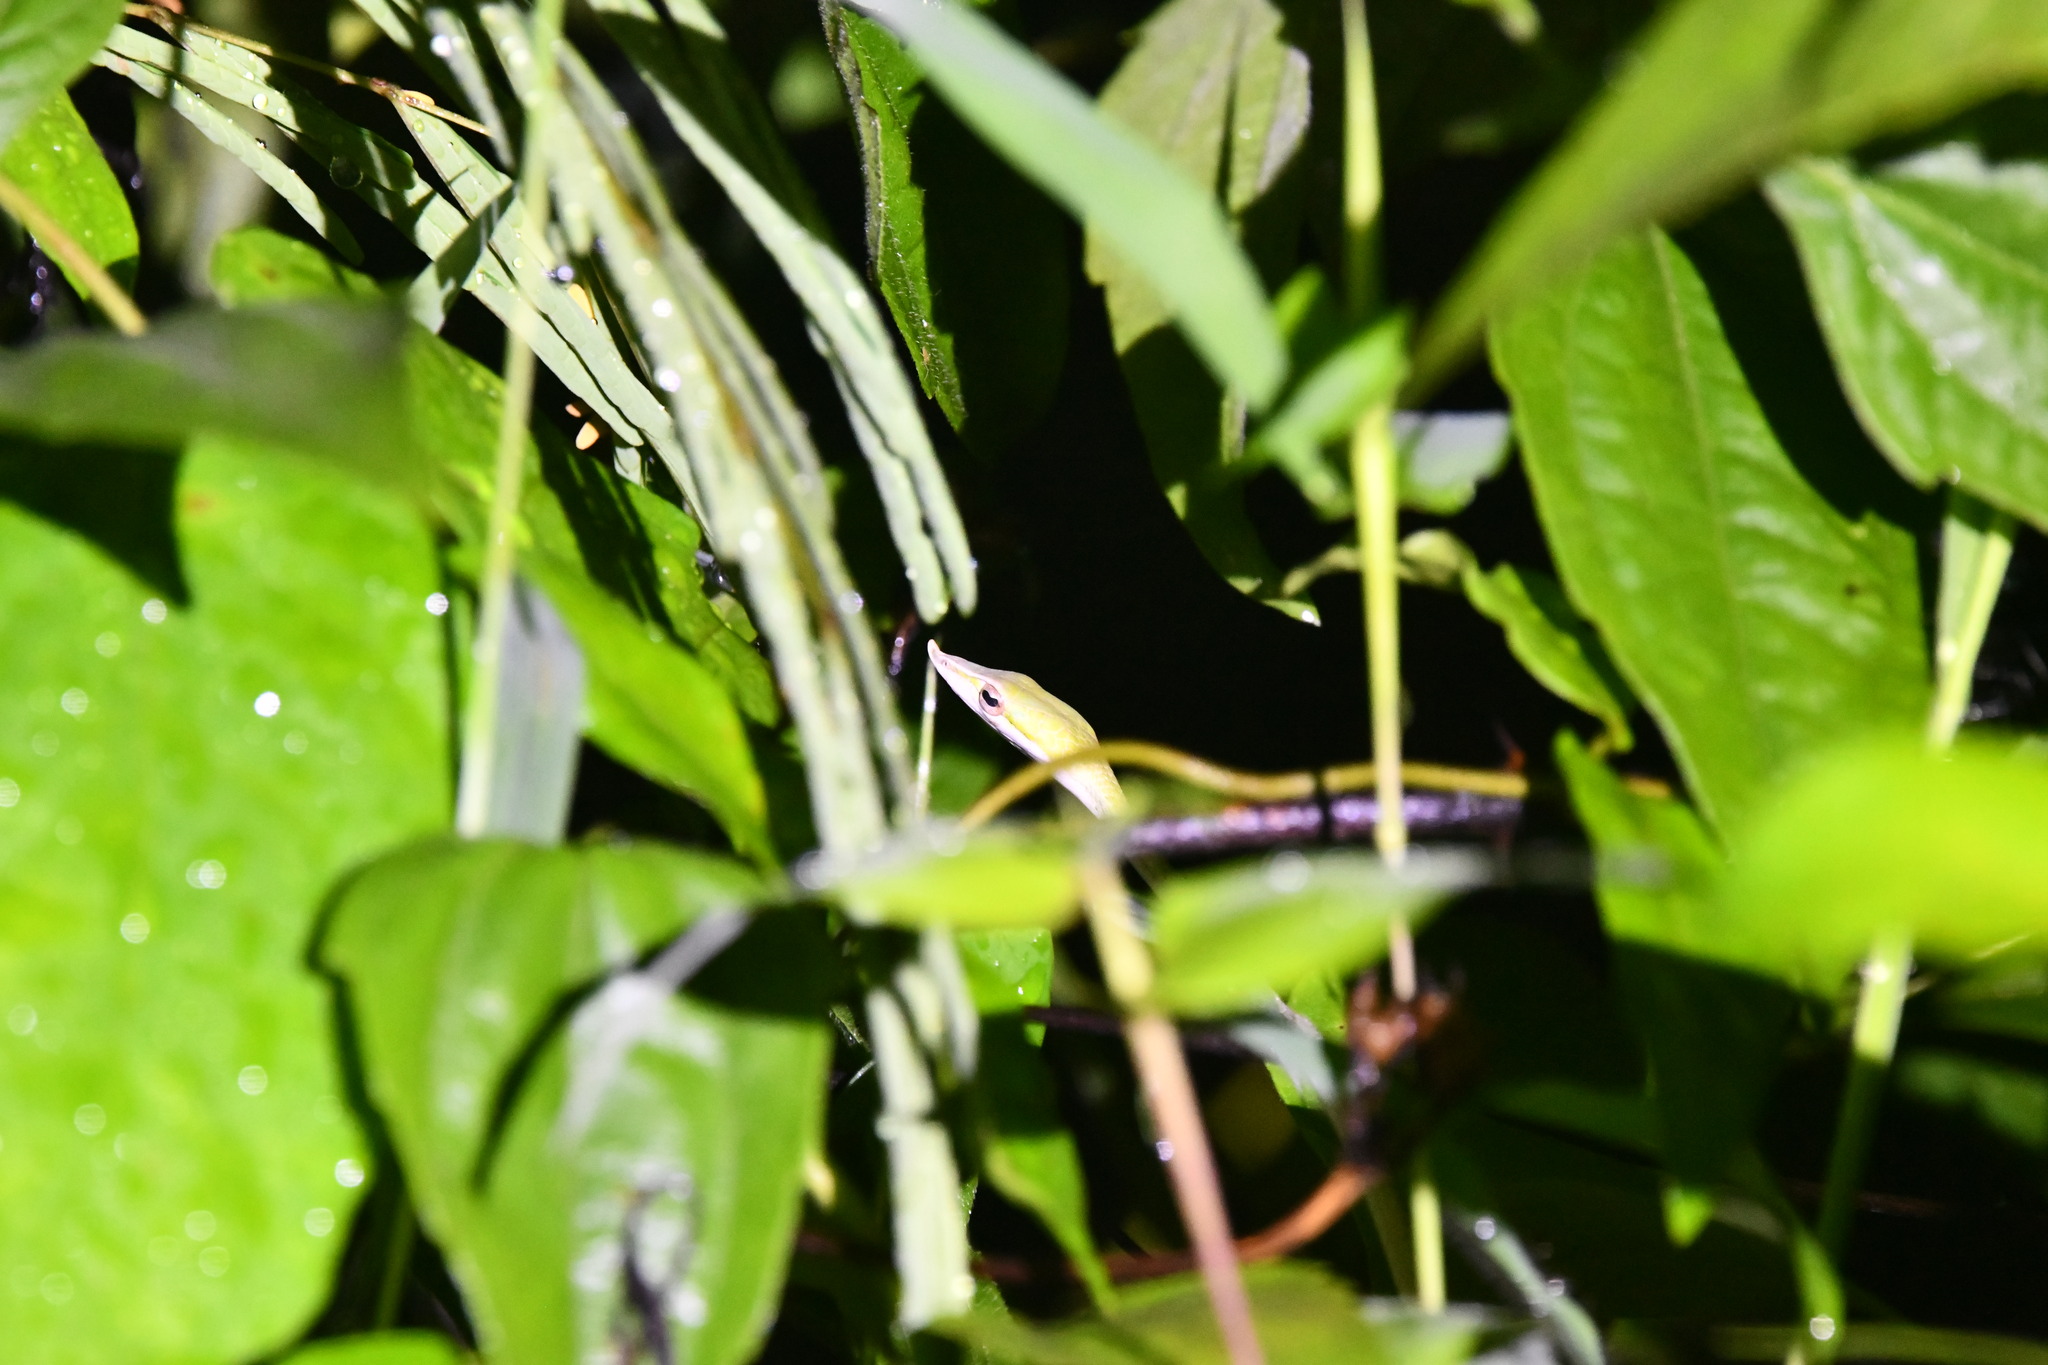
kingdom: Animalia
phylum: Chordata
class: Squamata
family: Colubridae
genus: Ahaetulla
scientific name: Ahaetulla oxyrhyncha
